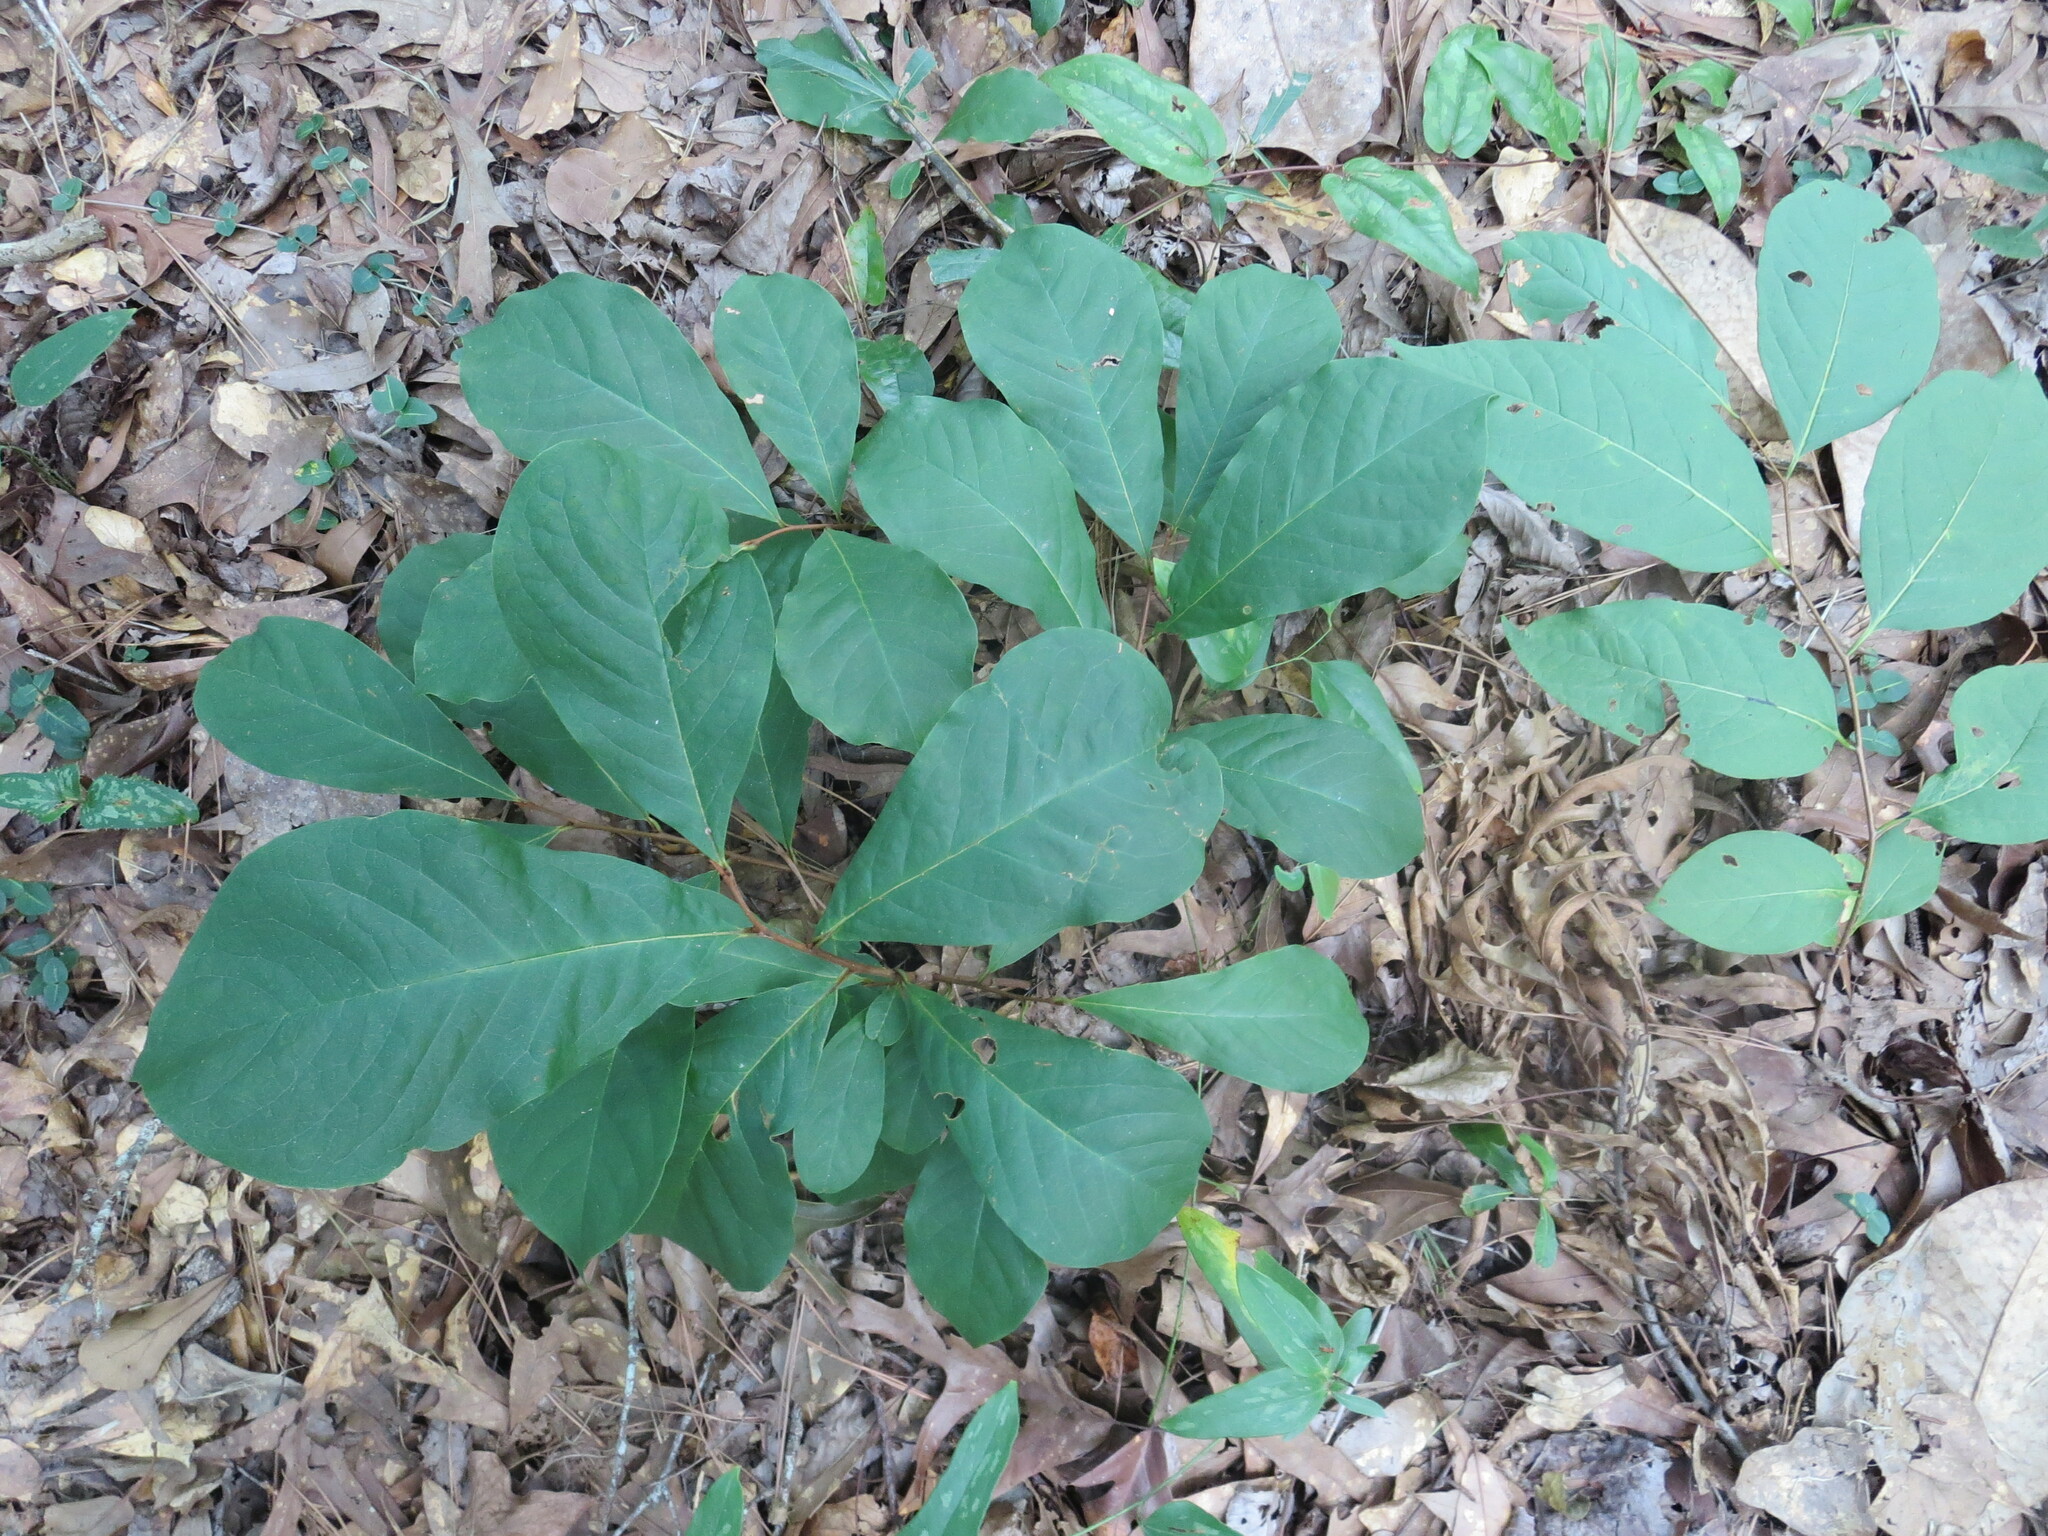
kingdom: Plantae
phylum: Tracheophyta
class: Magnoliopsida
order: Ericales
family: Ebenaceae
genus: Diospyros
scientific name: Diospyros virginiana
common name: Persimmon
